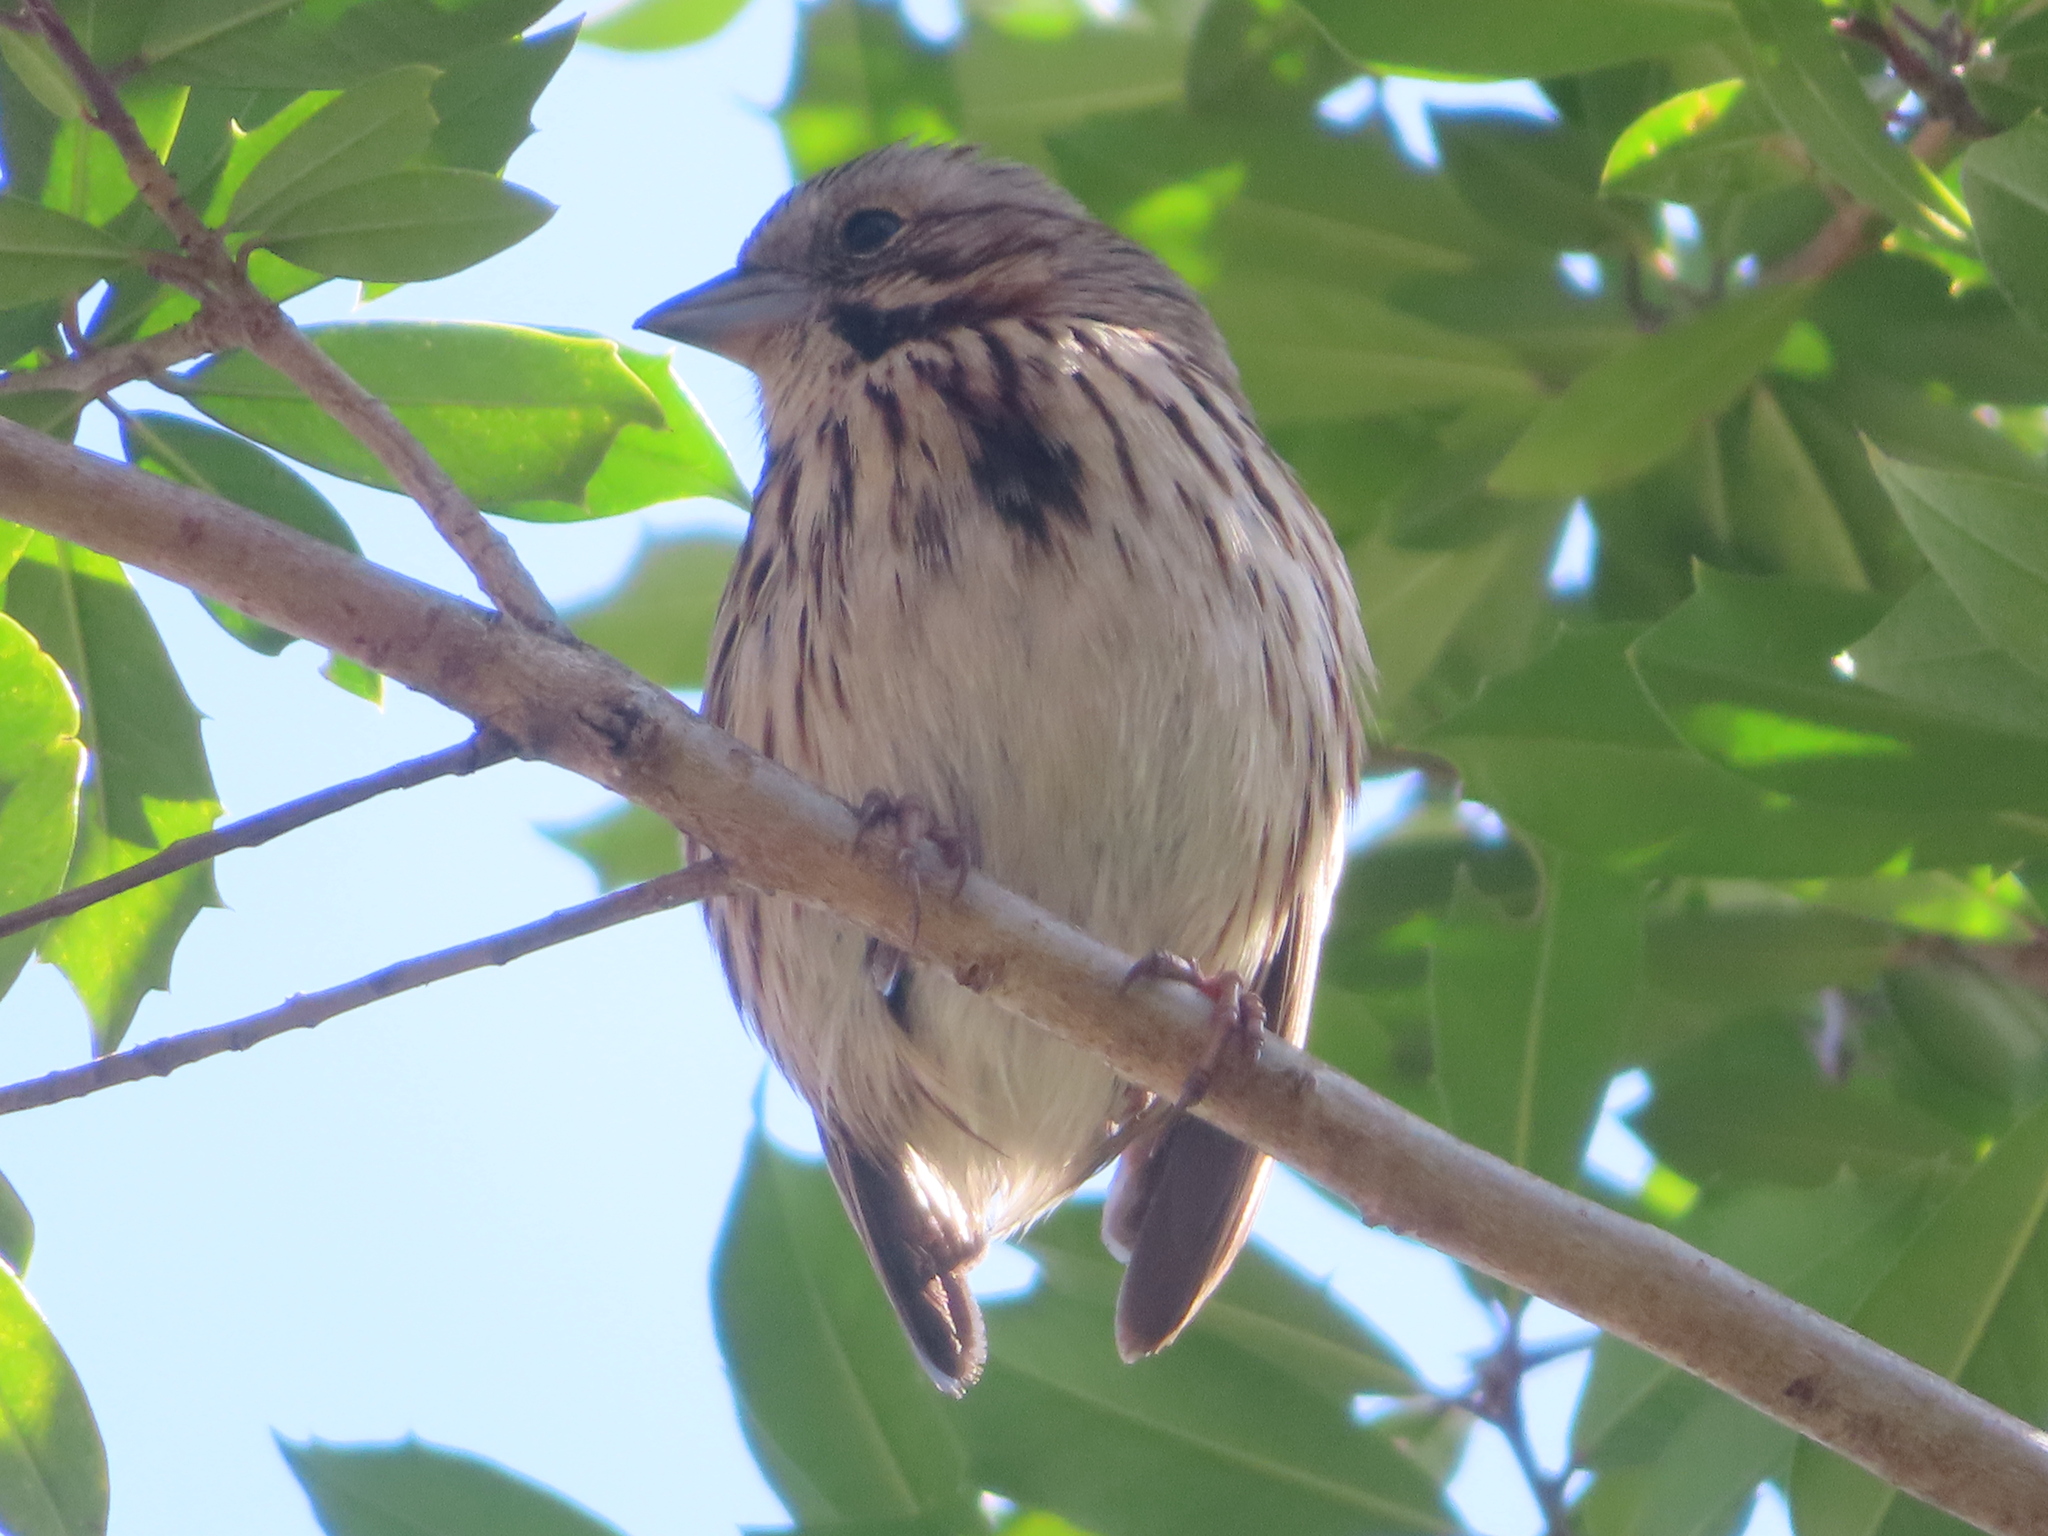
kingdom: Animalia
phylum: Chordata
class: Aves
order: Passeriformes
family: Passerellidae
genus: Melospiza
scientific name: Melospiza melodia
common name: Song sparrow
